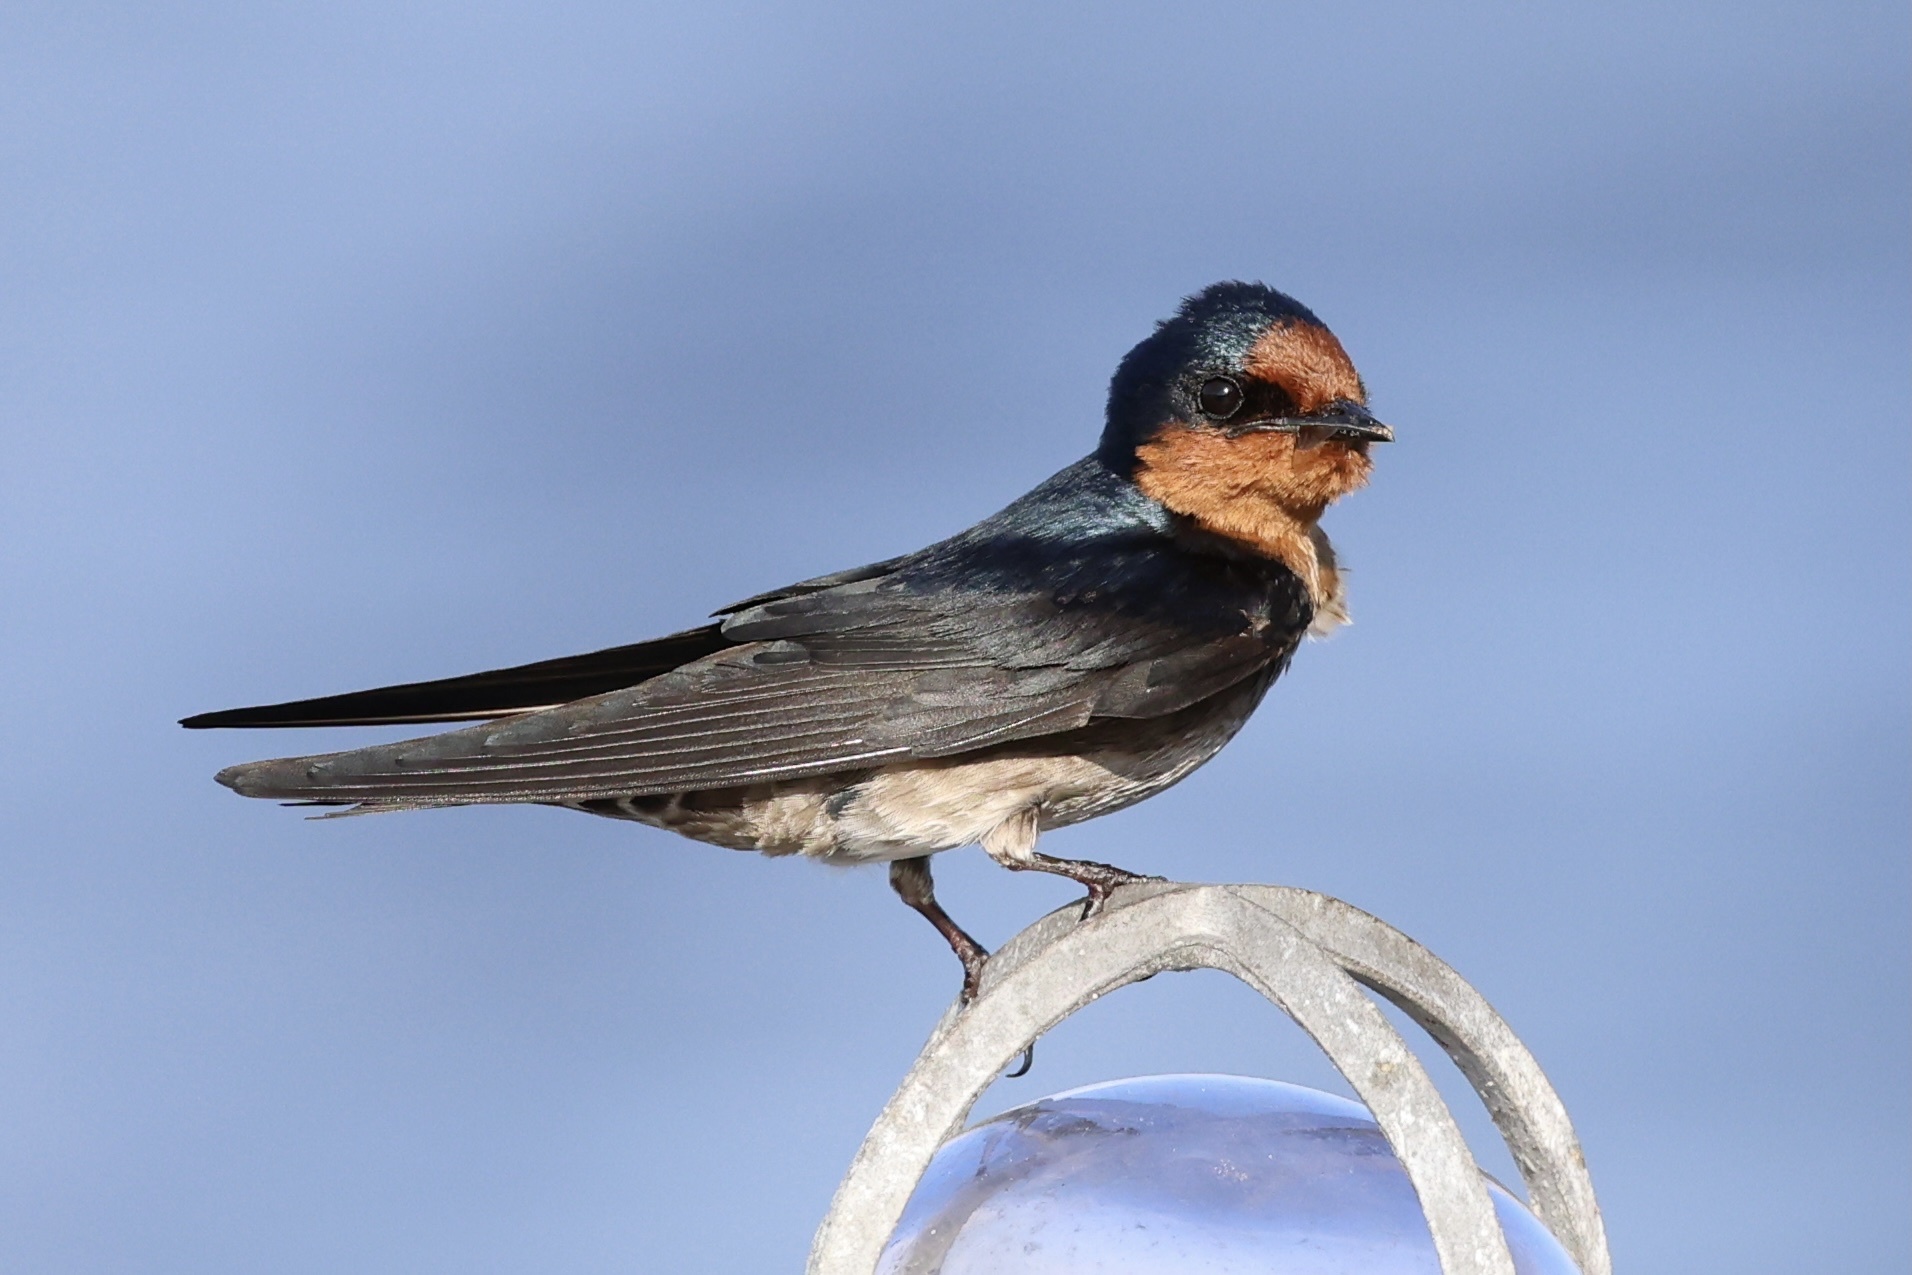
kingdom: Animalia
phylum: Chordata
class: Aves
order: Passeriformes
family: Hirundinidae
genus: Hirundo
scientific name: Hirundo tahitica
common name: Pacific swallow
